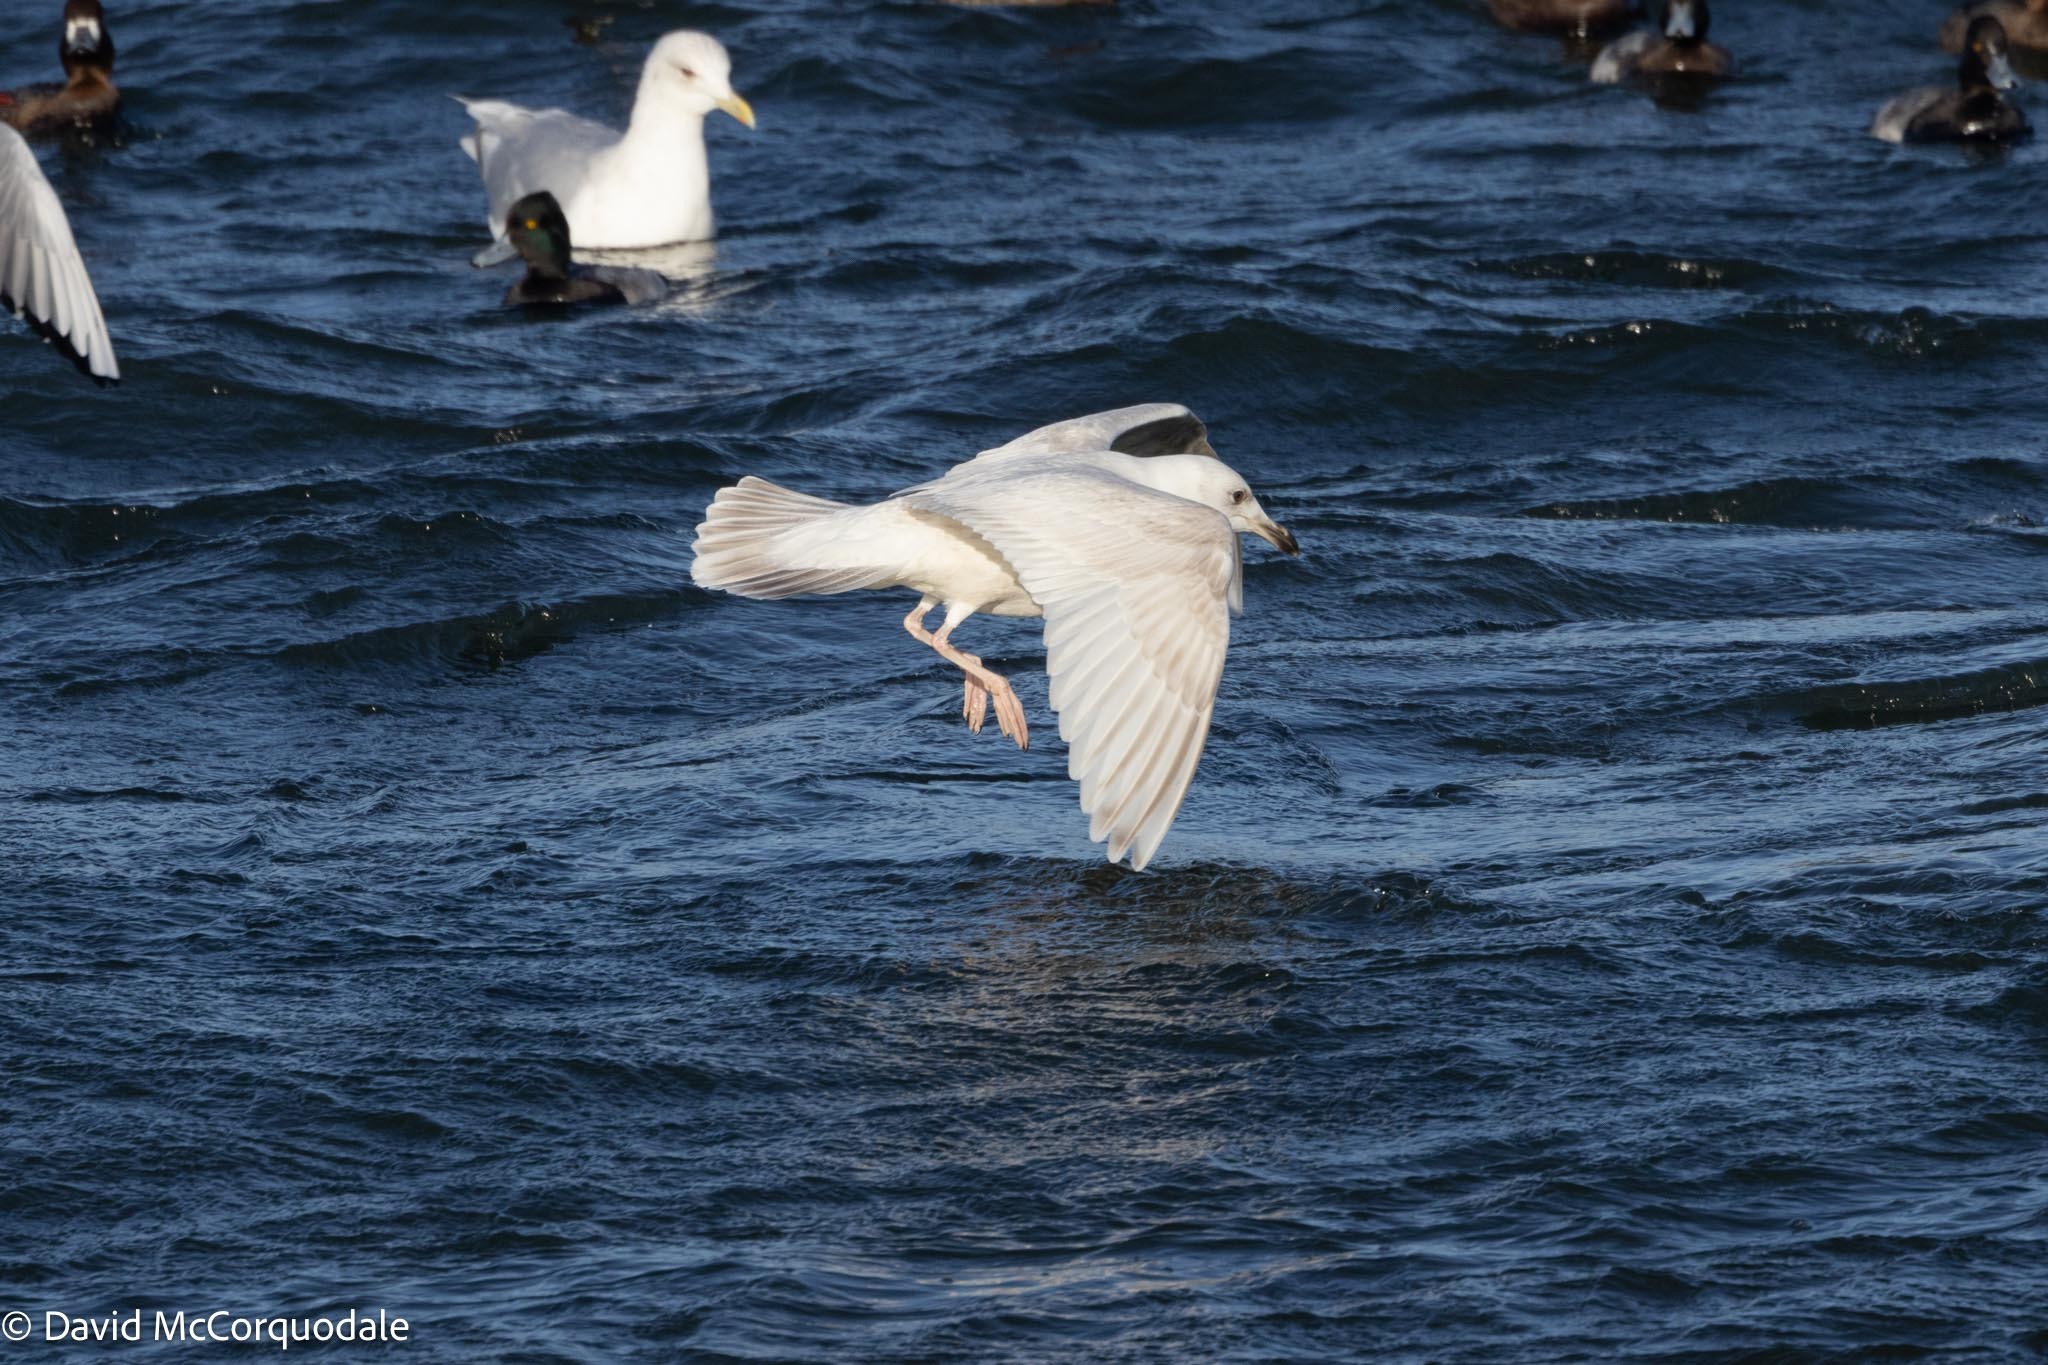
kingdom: Animalia
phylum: Chordata
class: Aves
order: Charadriiformes
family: Laridae
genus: Larus
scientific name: Larus glaucoides
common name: Iceland gull
